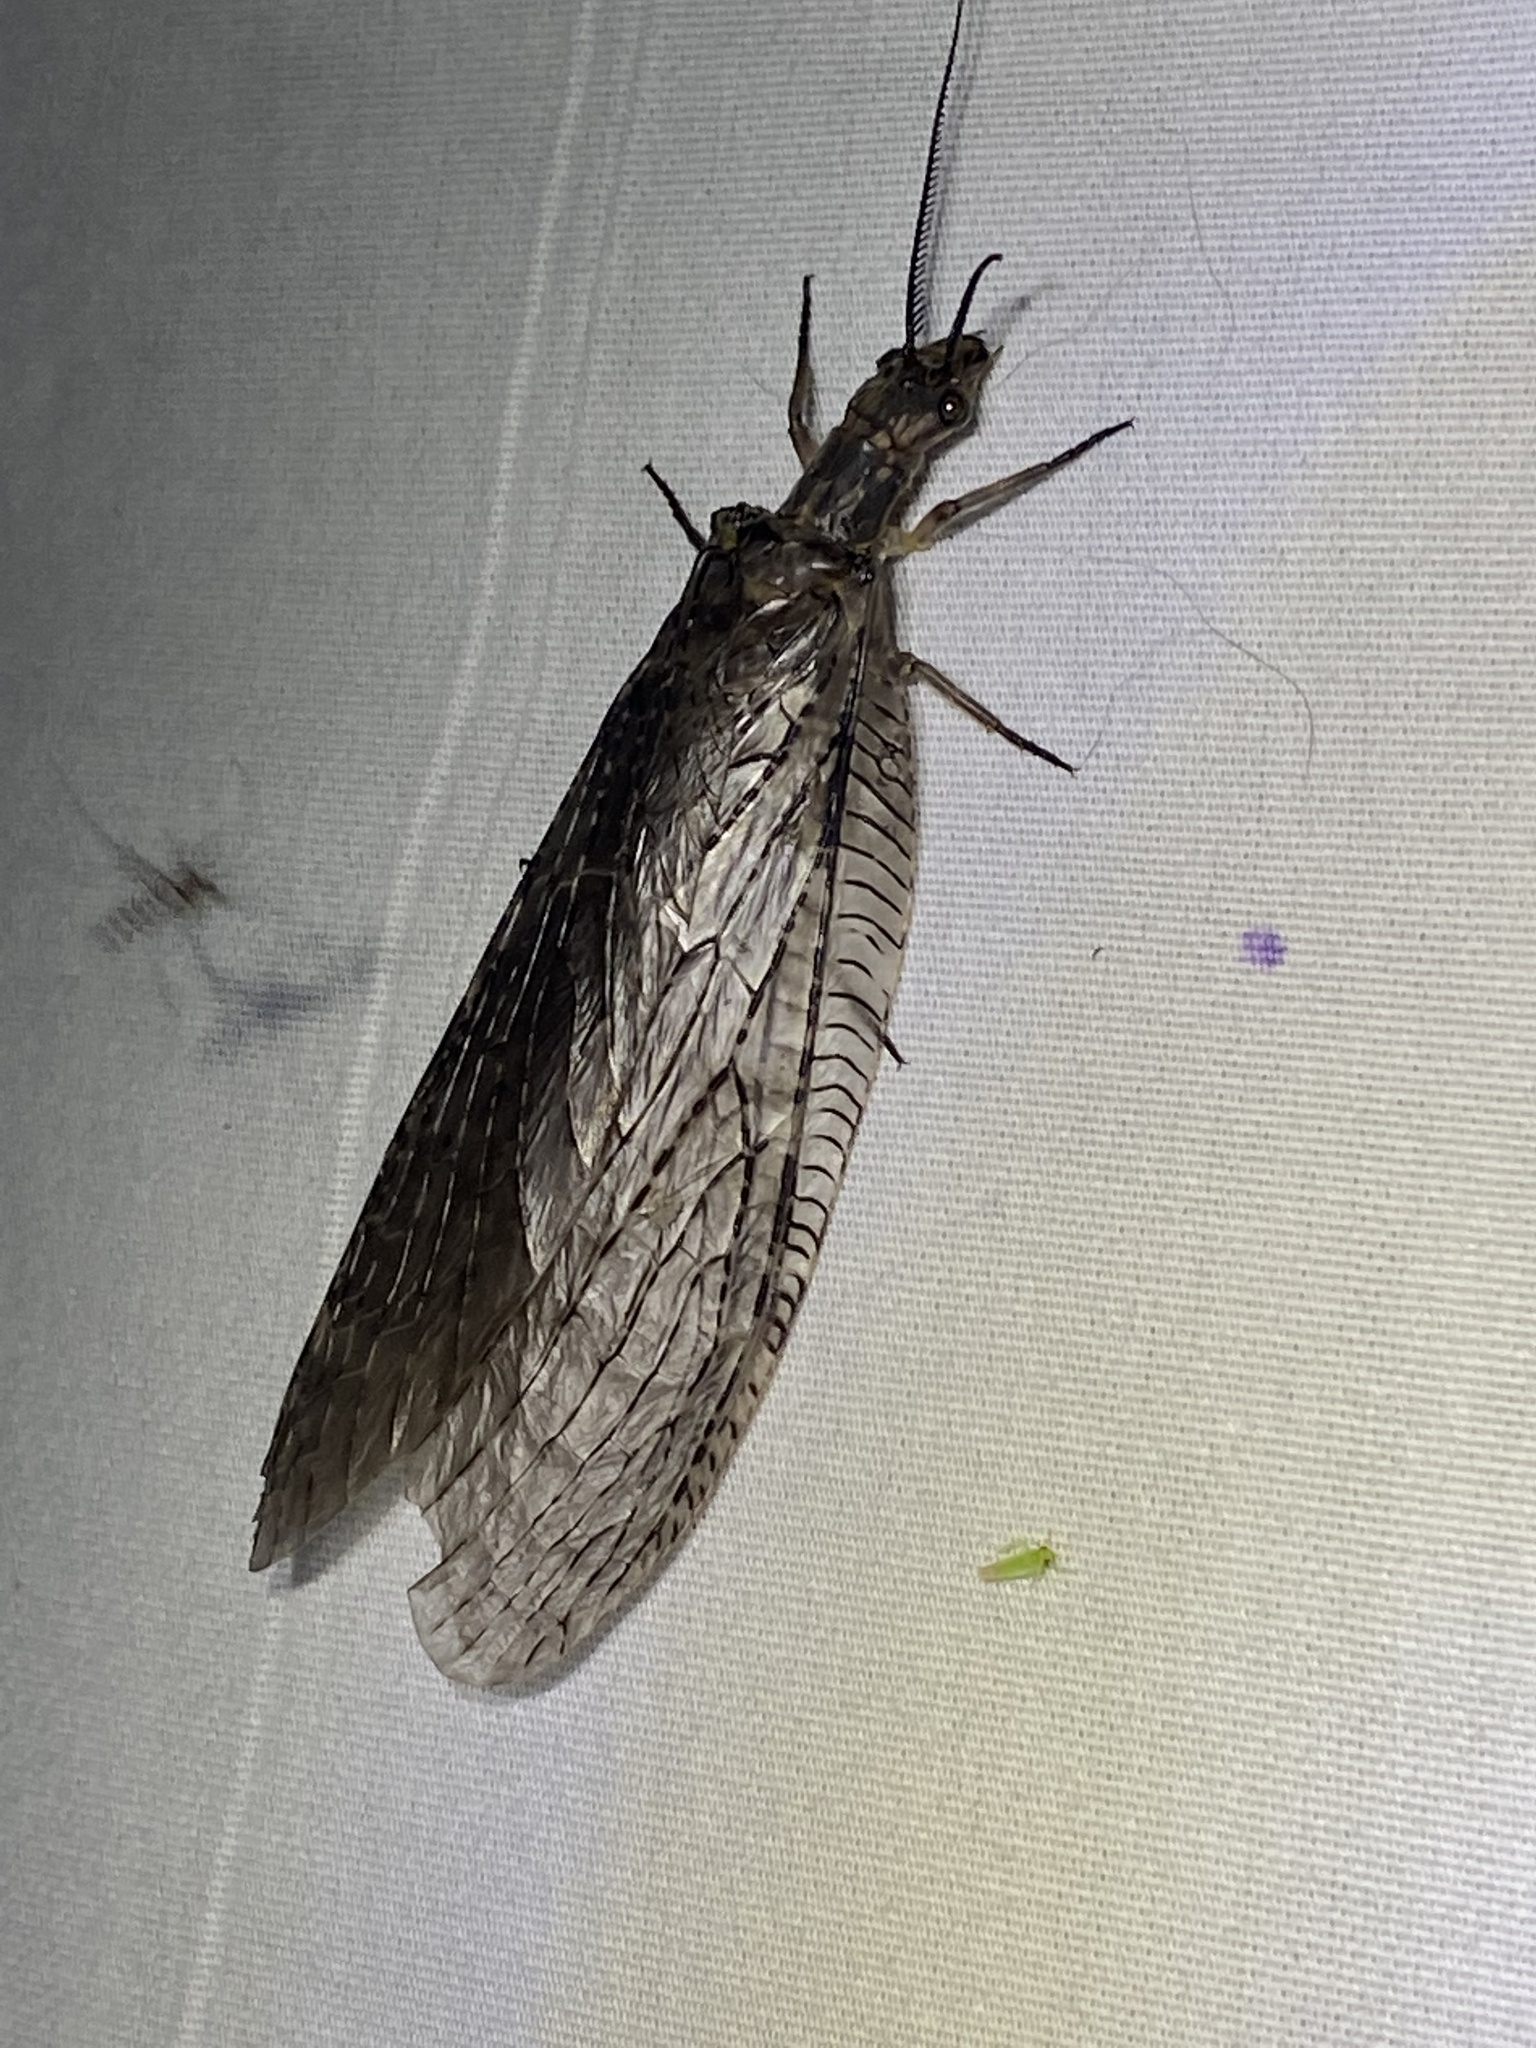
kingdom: Animalia
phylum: Arthropoda
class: Insecta
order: Megaloptera
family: Corydalidae
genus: Chauliodes
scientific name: Chauliodes pectinicornis
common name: Summer fishfly
